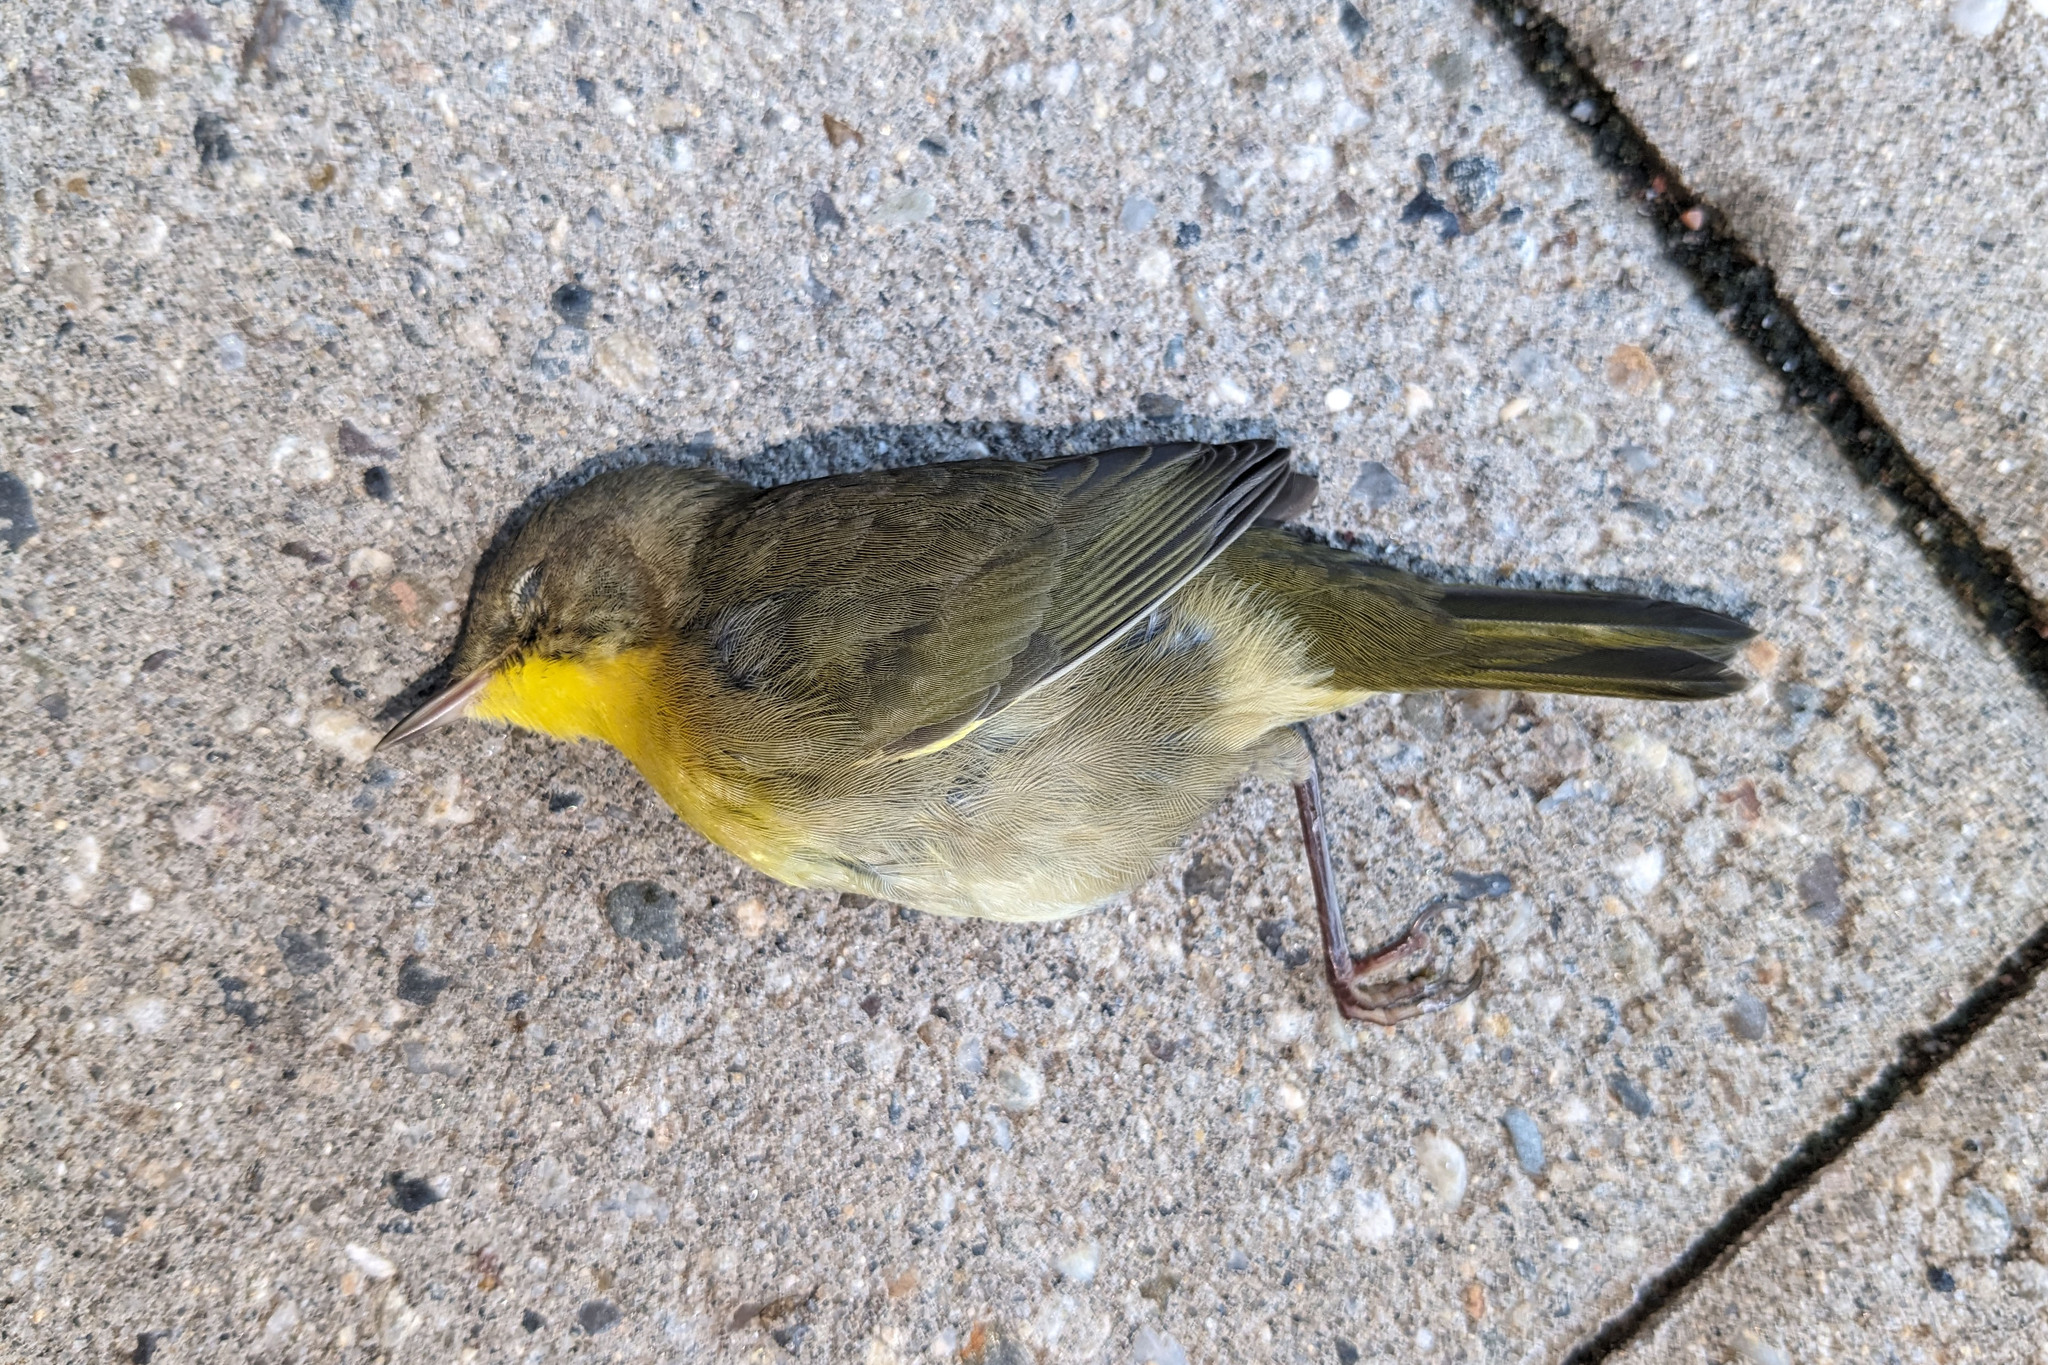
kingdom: Animalia
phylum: Chordata
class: Aves
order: Passeriformes
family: Parulidae
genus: Geothlypis
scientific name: Geothlypis trichas
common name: Common yellowthroat
